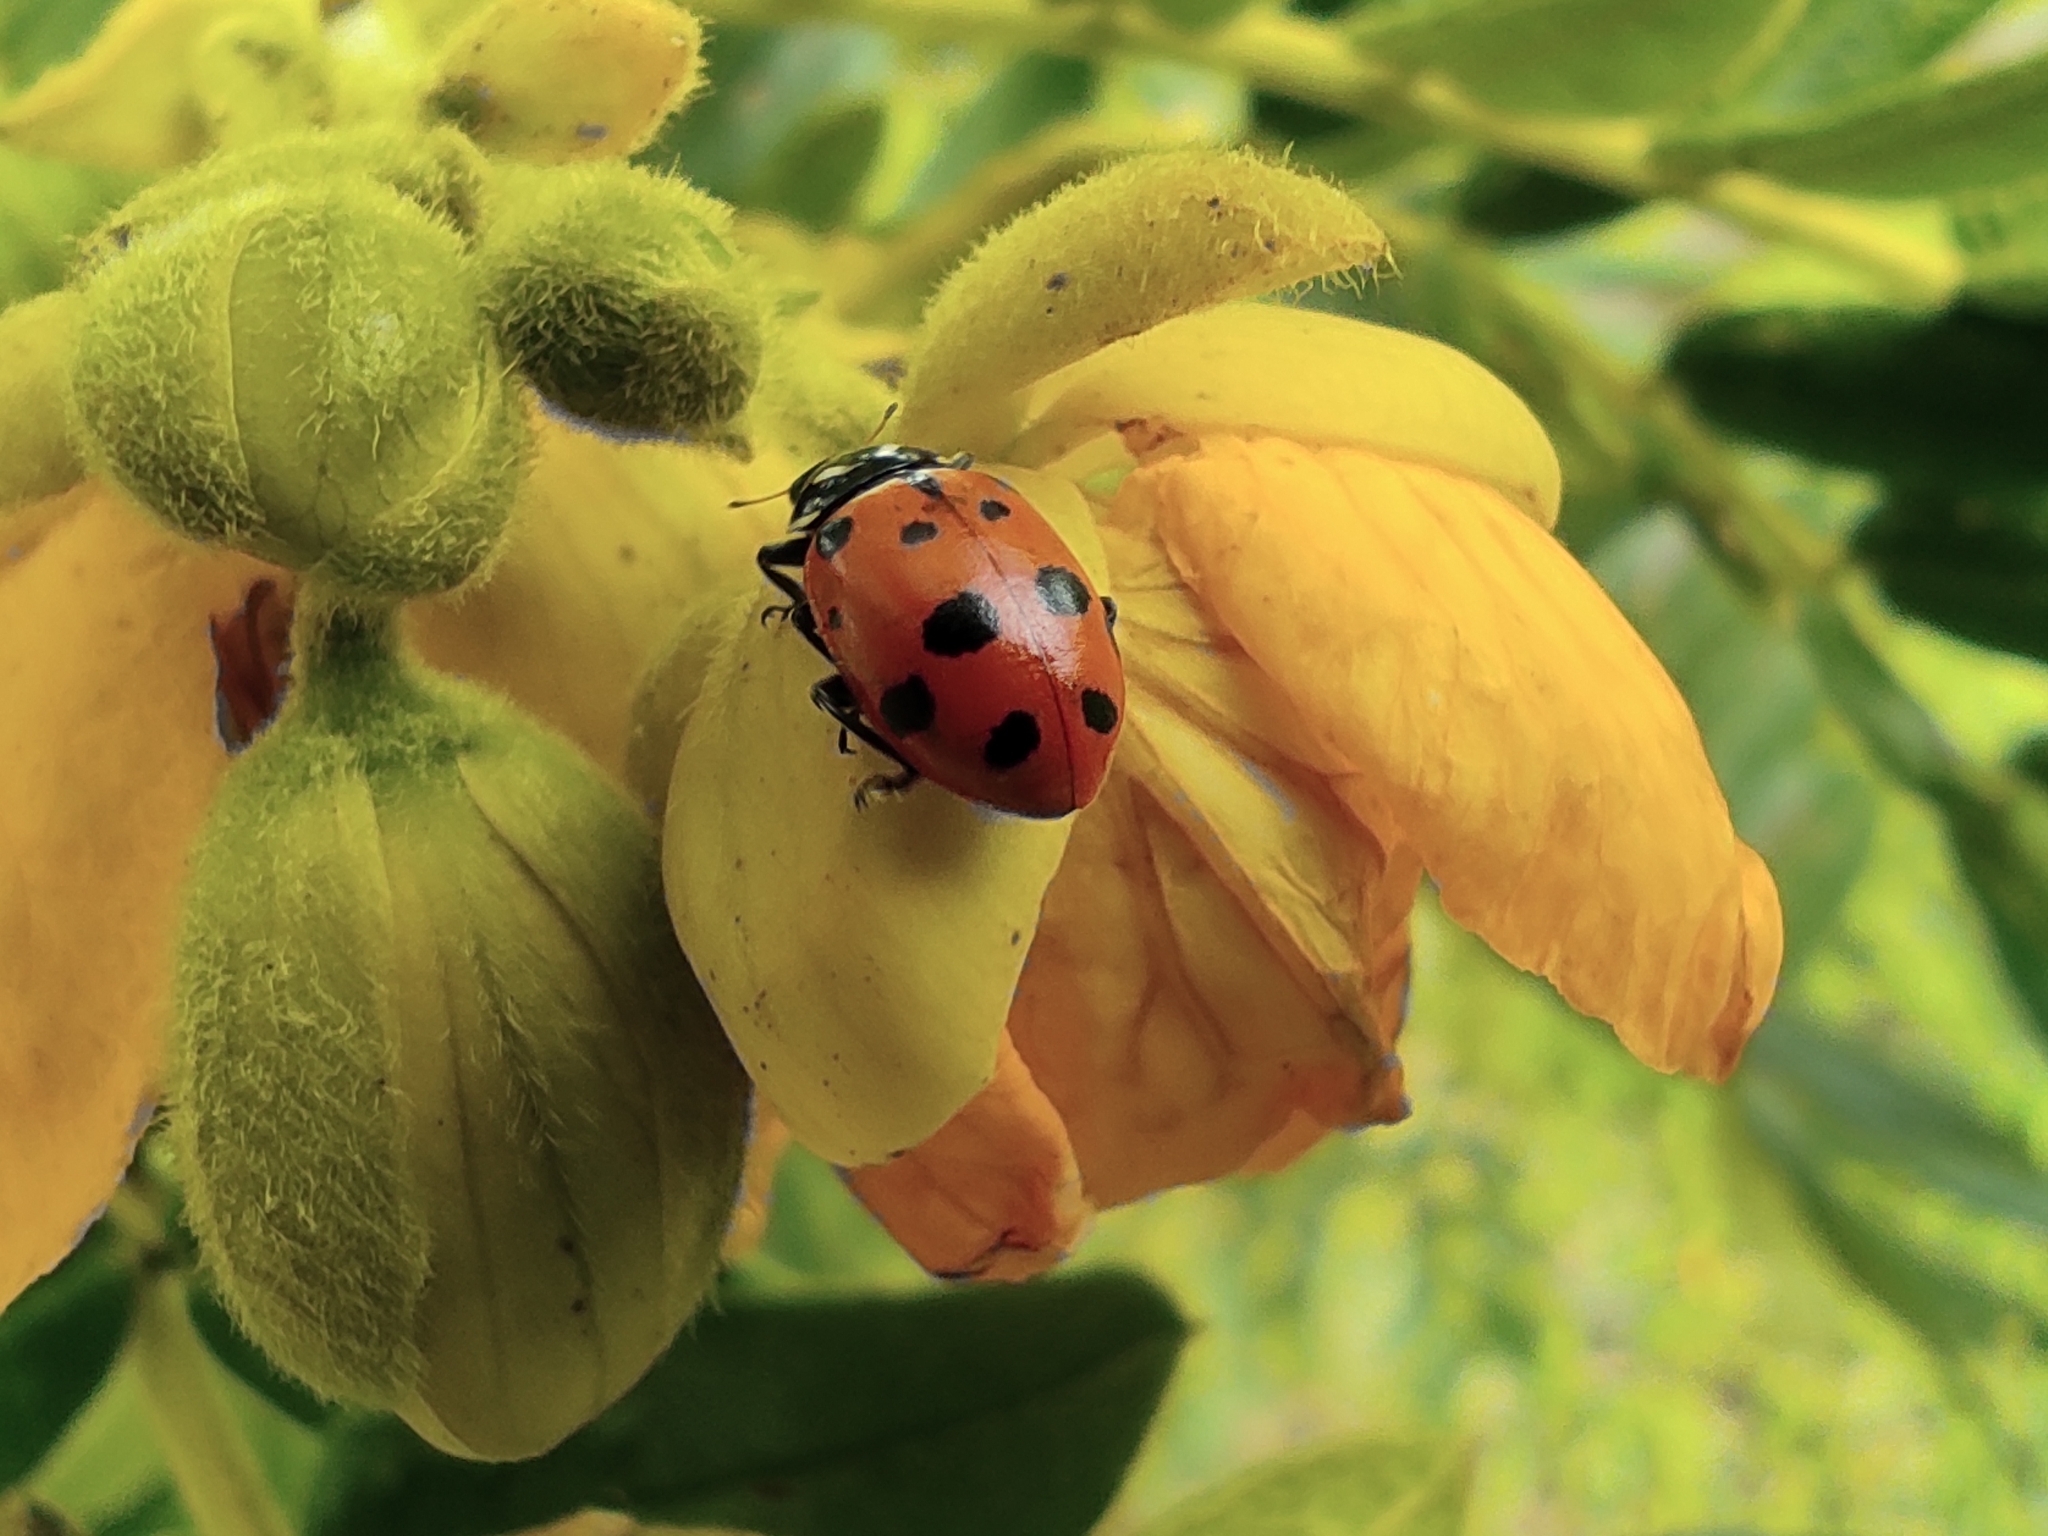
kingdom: Animalia
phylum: Arthropoda
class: Insecta
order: Coleoptera
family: Coccinellidae
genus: Hippodamia
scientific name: Hippodamia convergens
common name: Convergent lady beetle
